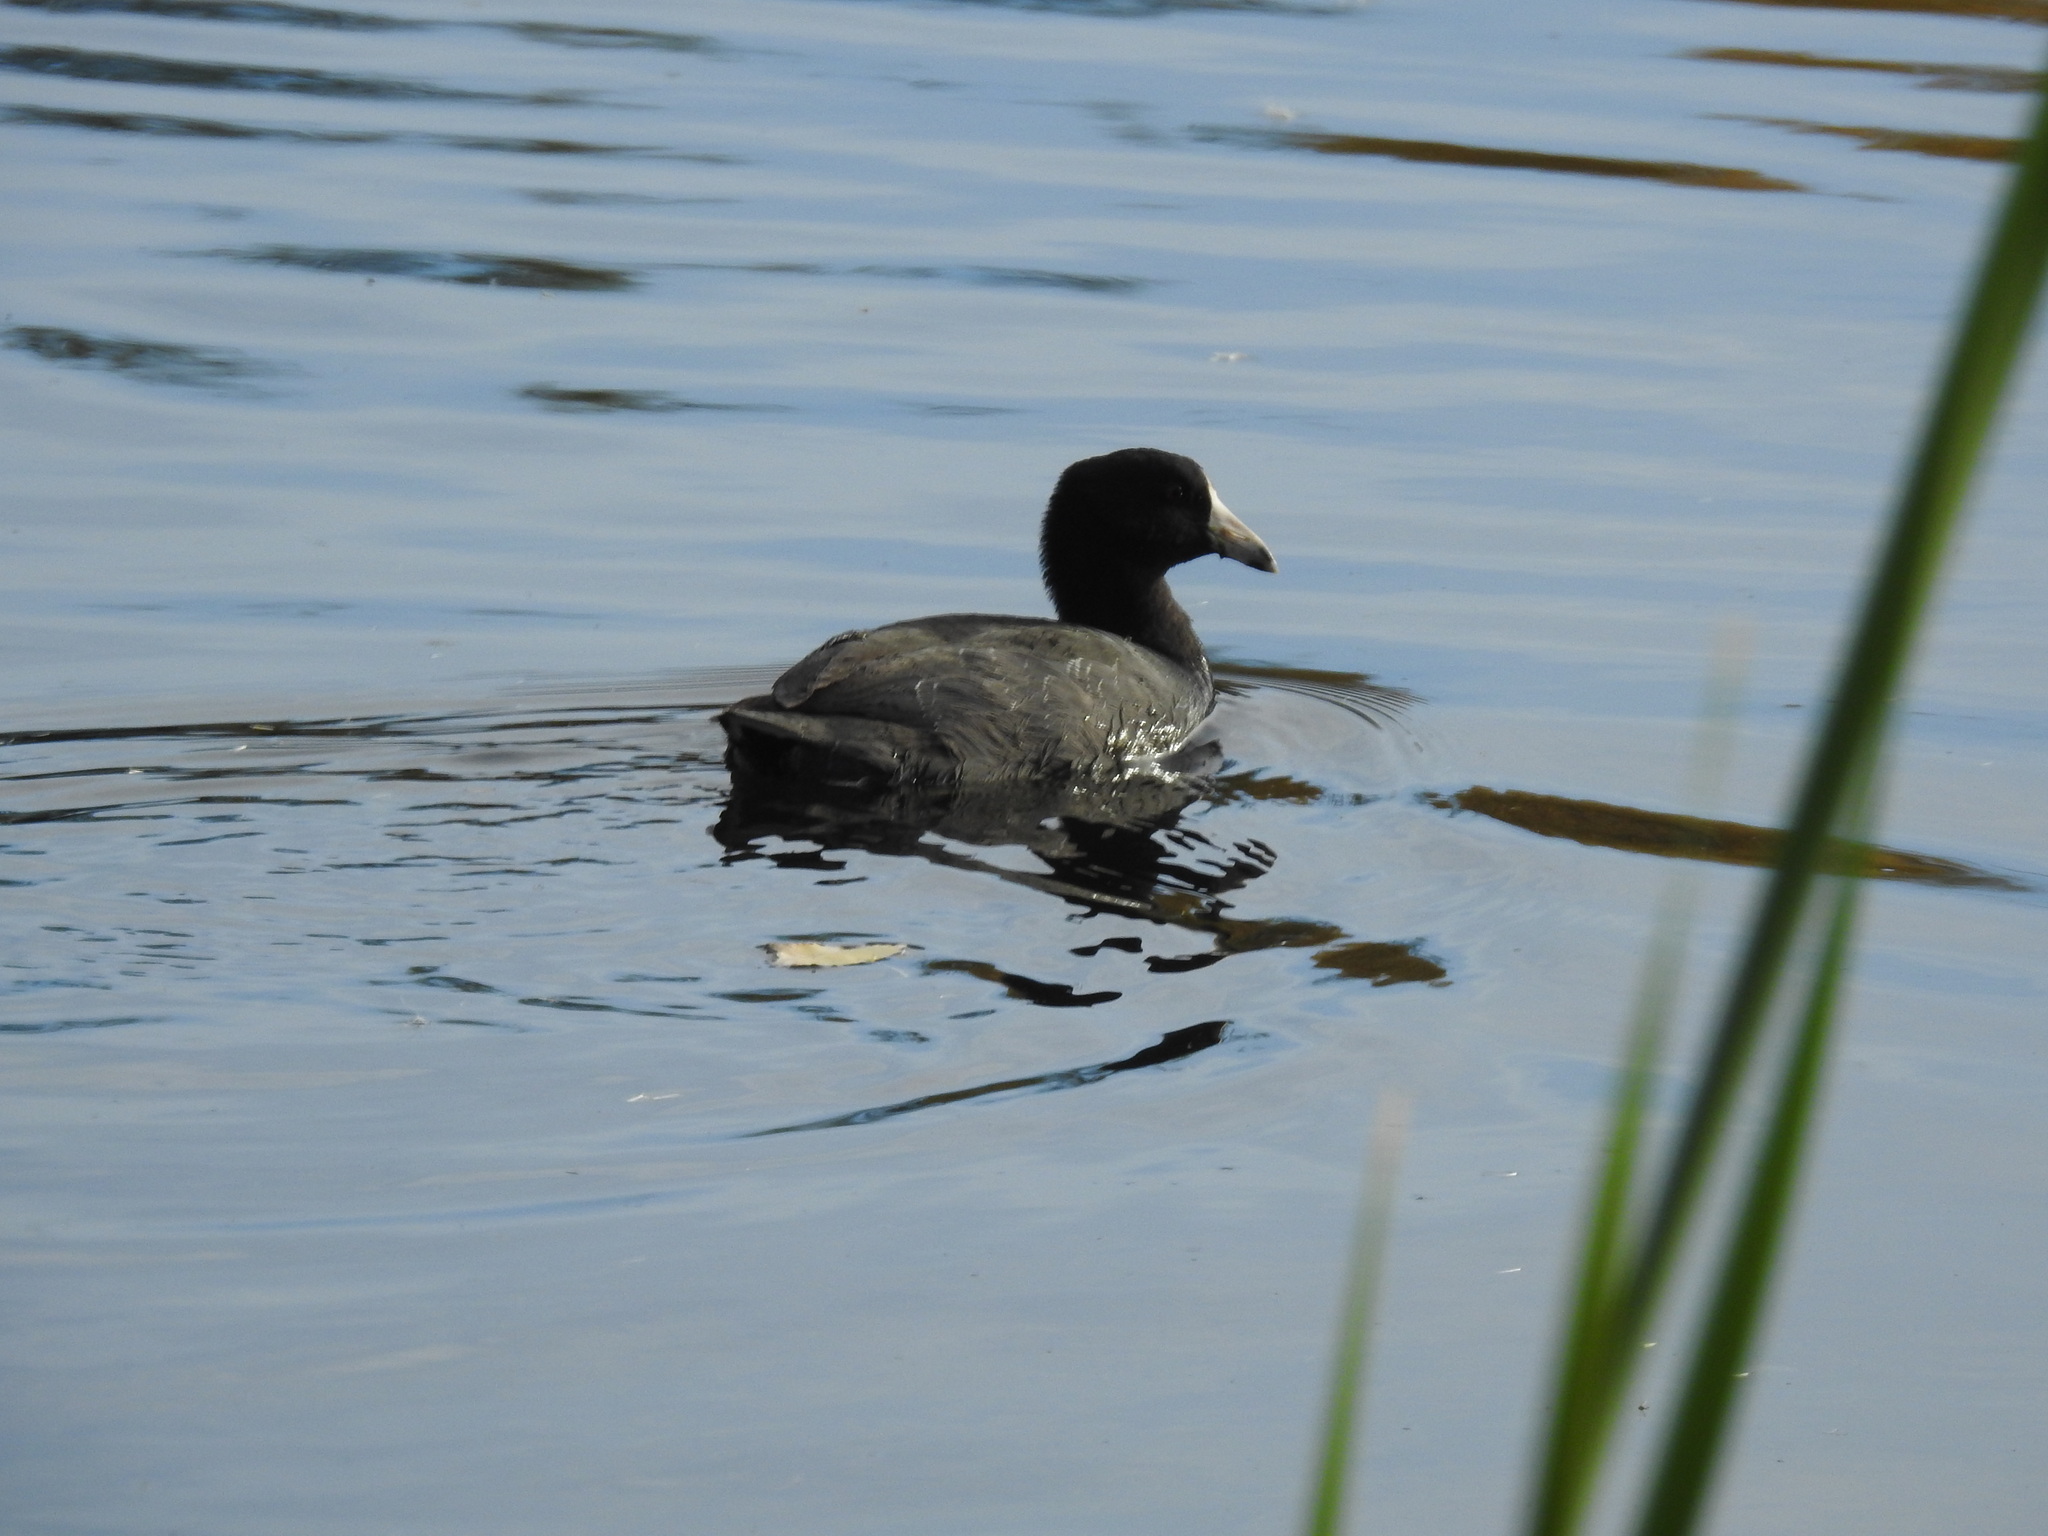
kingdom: Animalia
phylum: Chordata
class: Aves
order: Gruiformes
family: Rallidae
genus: Fulica
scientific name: Fulica americana
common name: American coot
